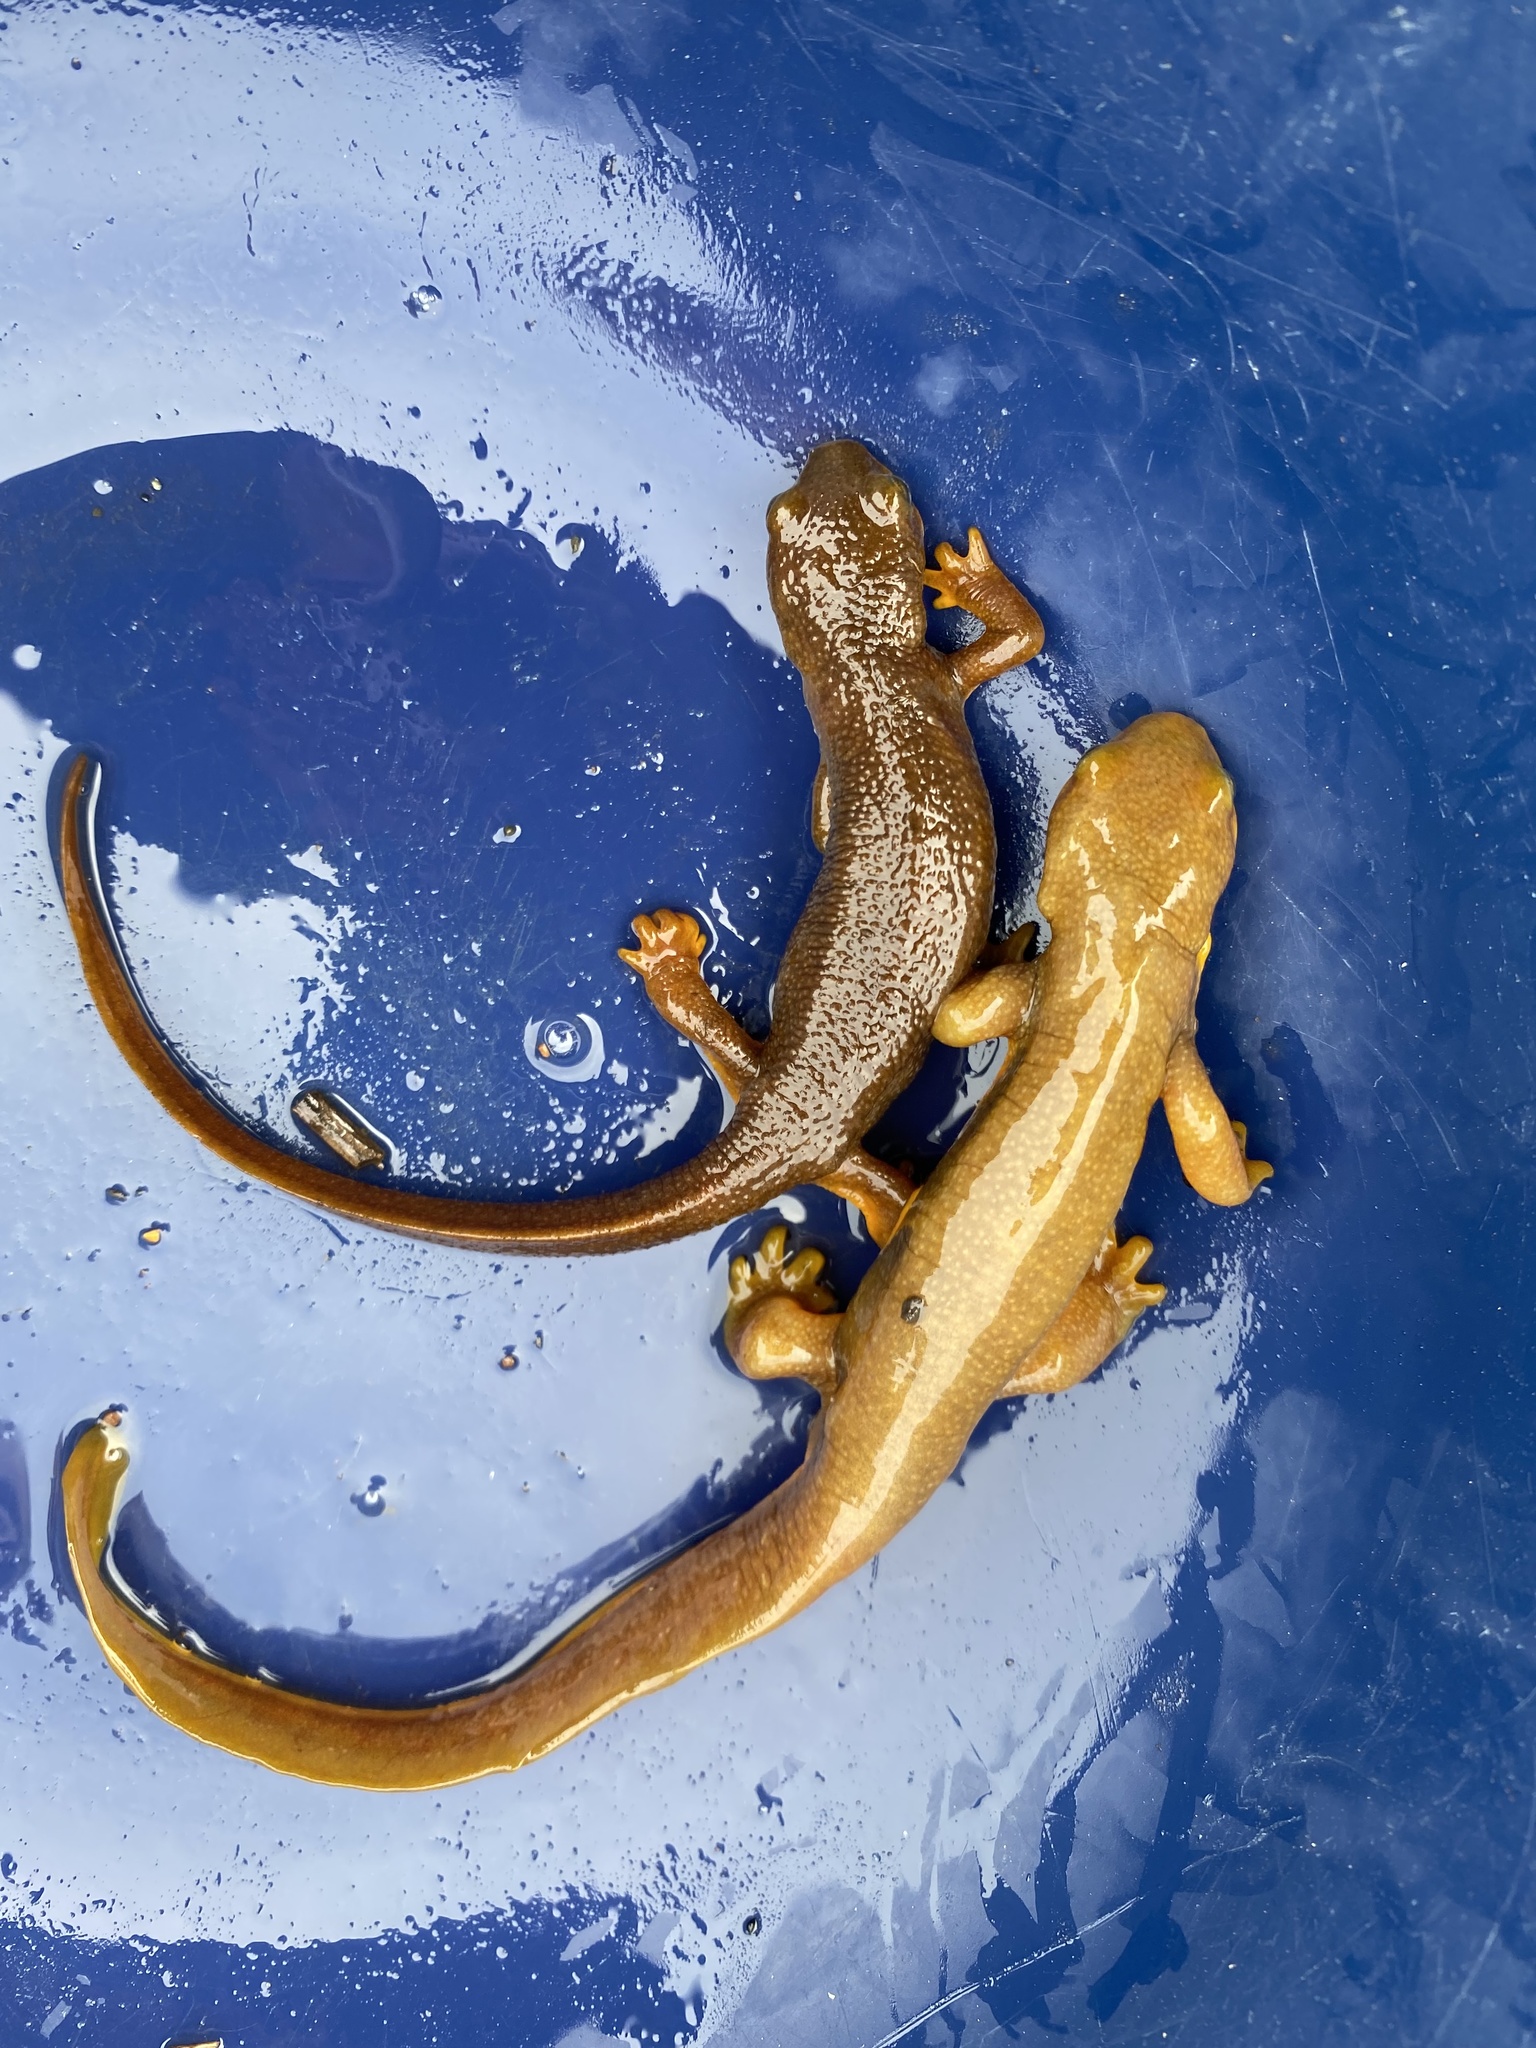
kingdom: Animalia
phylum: Chordata
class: Amphibia
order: Caudata
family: Salamandridae
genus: Taricha
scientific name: Taricha torosa
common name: California newt
